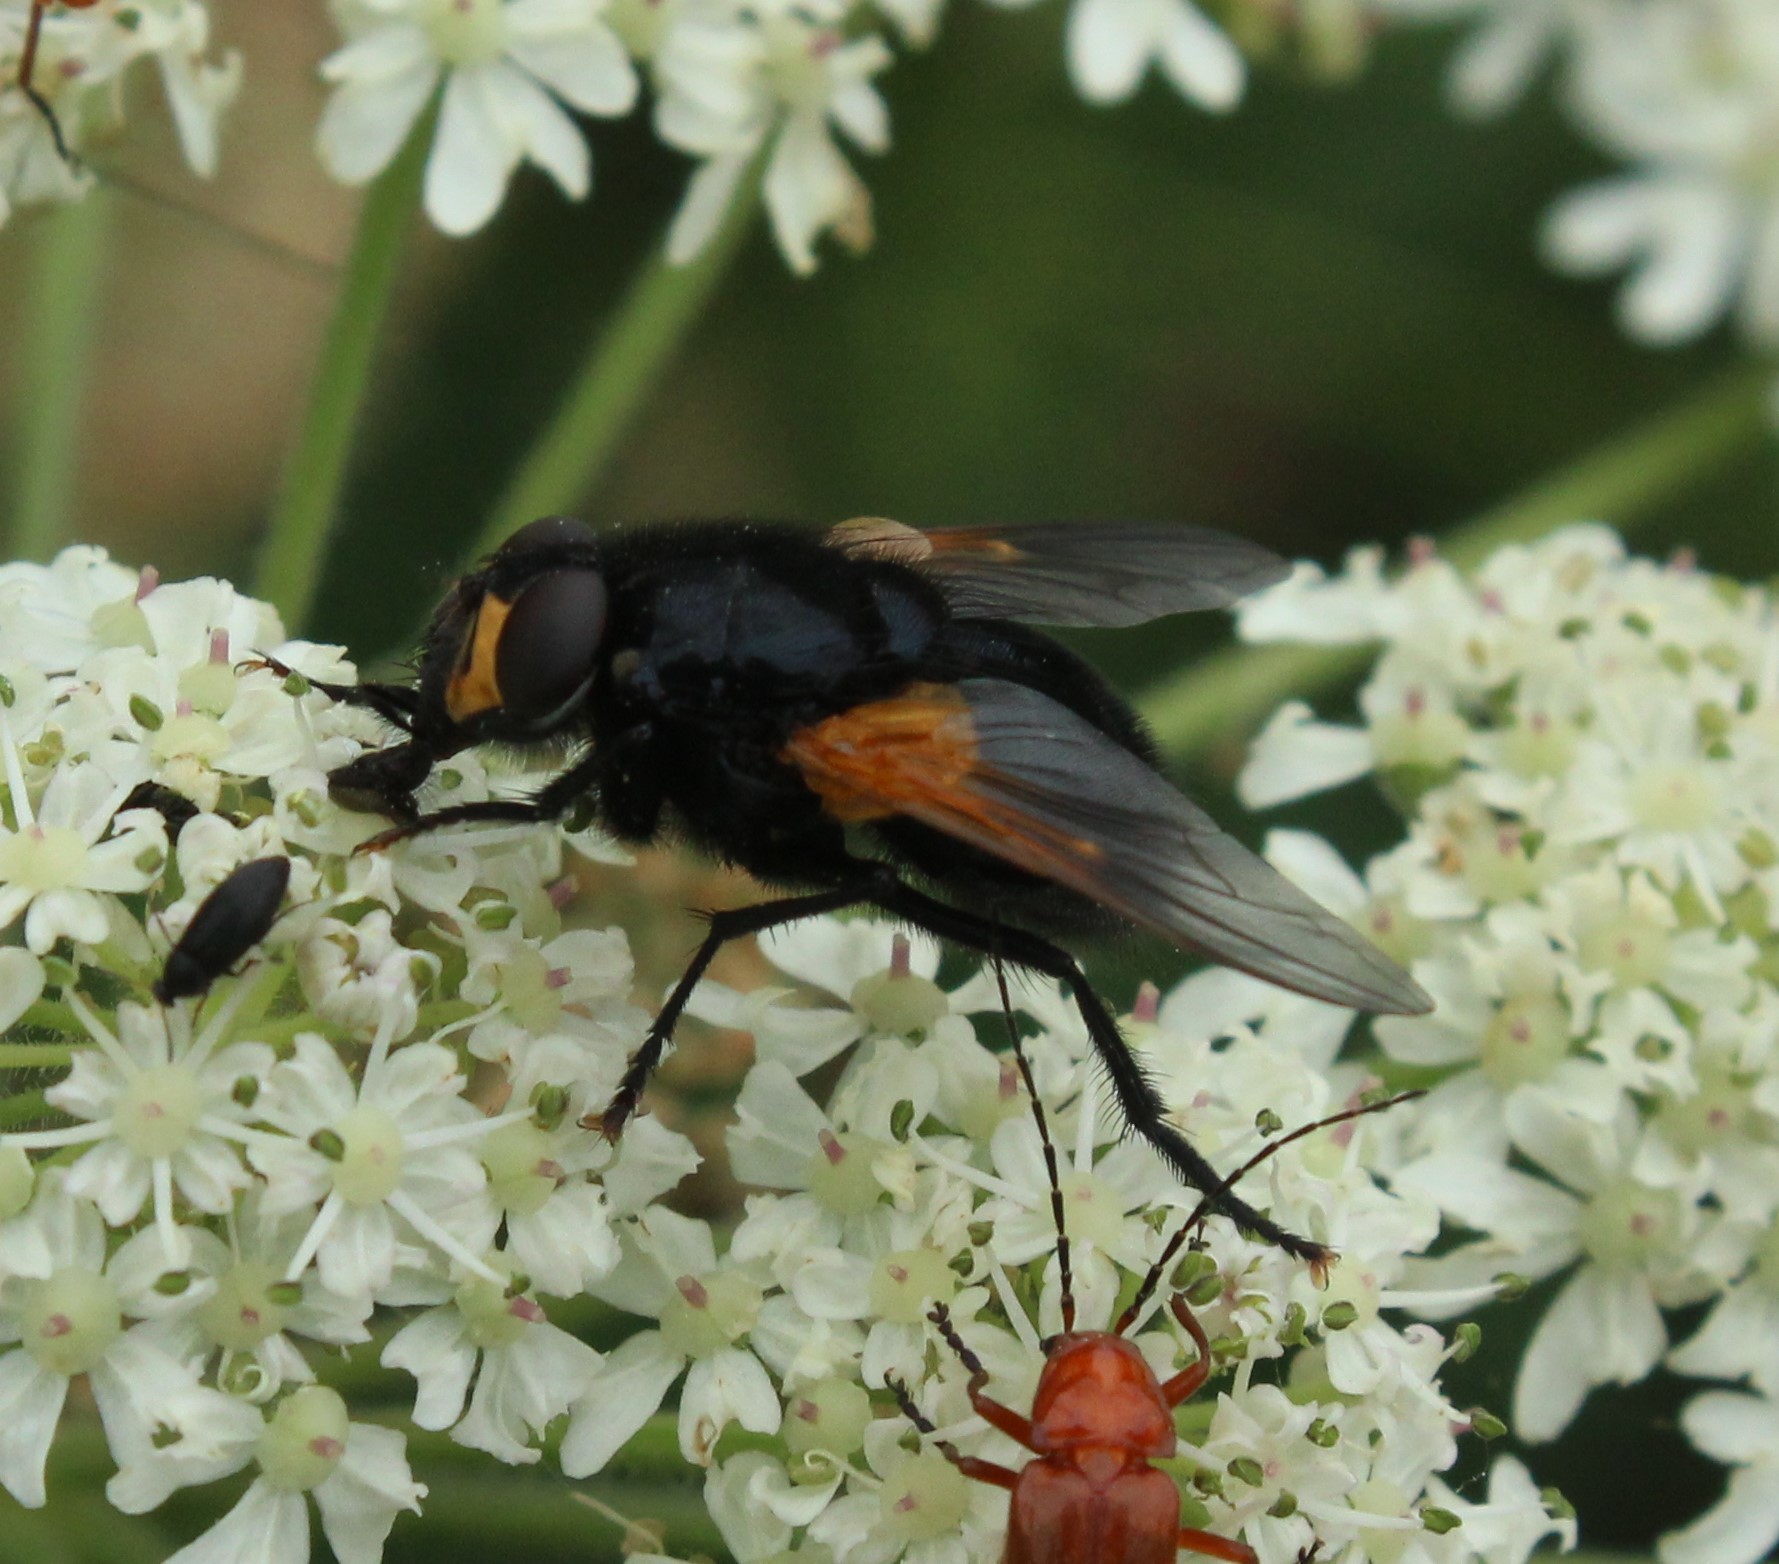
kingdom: Animalia
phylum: Arthropoda
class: Insecta
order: Diptera
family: Muscidae
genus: Mesembrina
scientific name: Mesembrina meridiana
